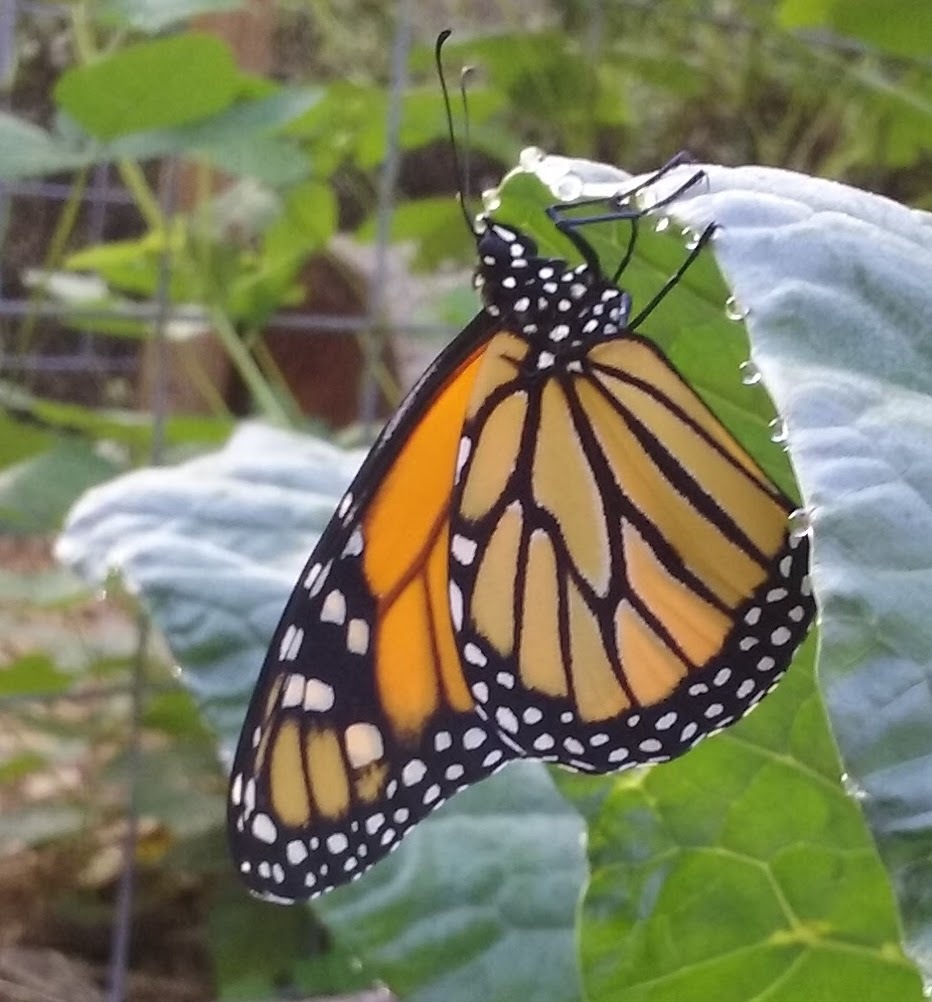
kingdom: Animalia
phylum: Arthropoda
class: Insecta
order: Lepidoptera
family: Nymphalidae
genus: Danaus
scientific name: Danaus plexippus
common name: Monarch
